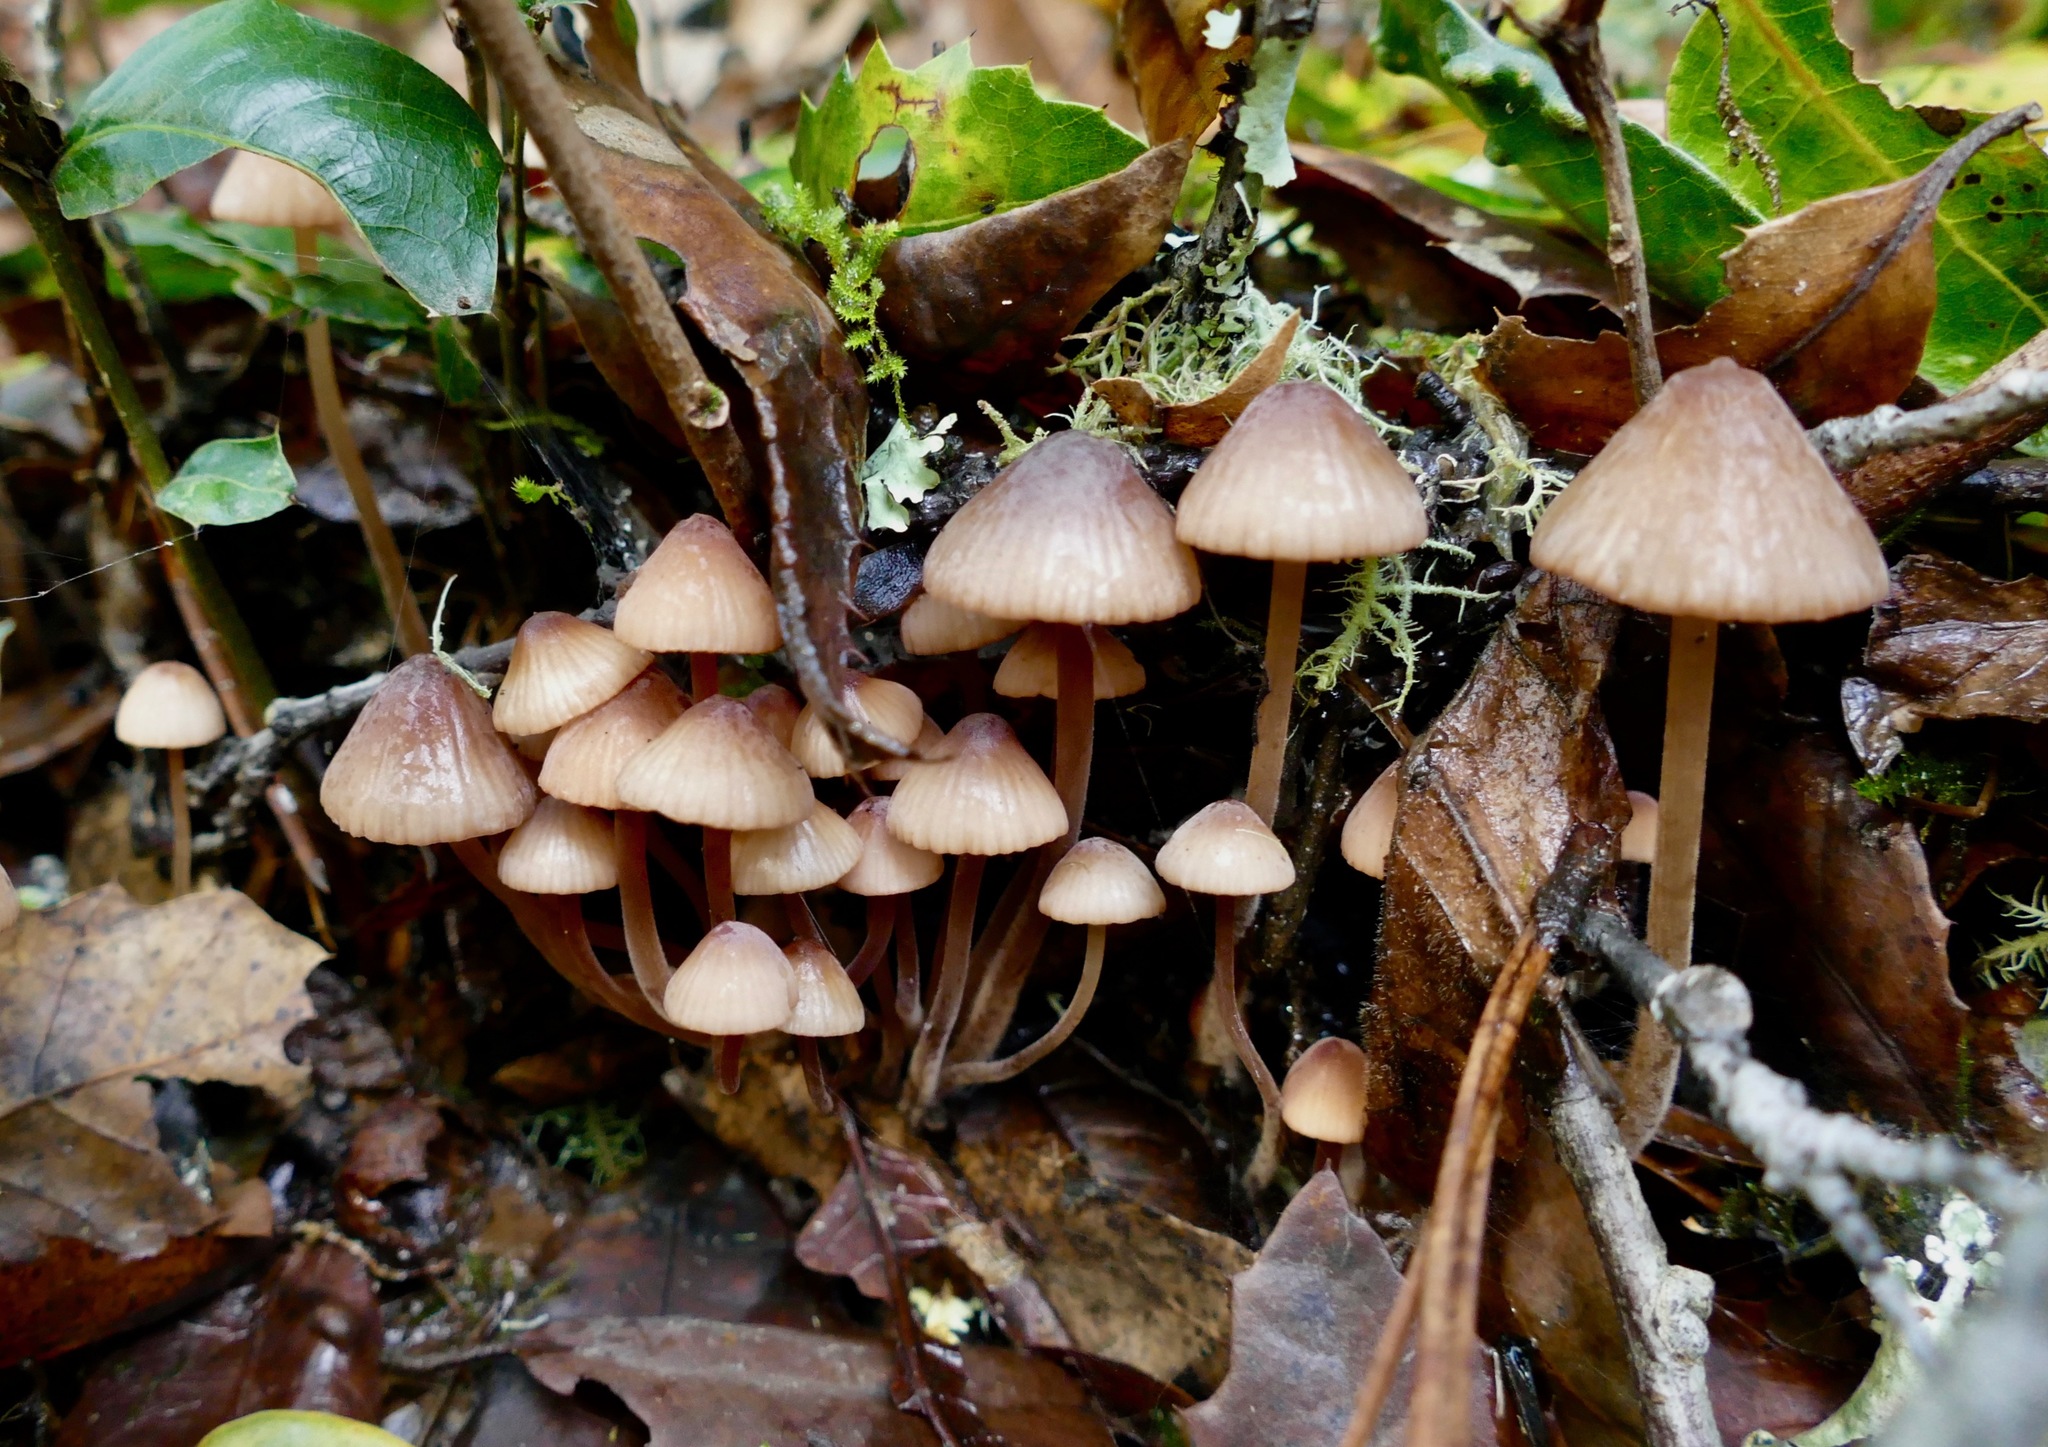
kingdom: Fungi
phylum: Basidiomycota
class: Agaricomycetes
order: Agaricales
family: Mycenaceae
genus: Mycena
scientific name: Mycena
